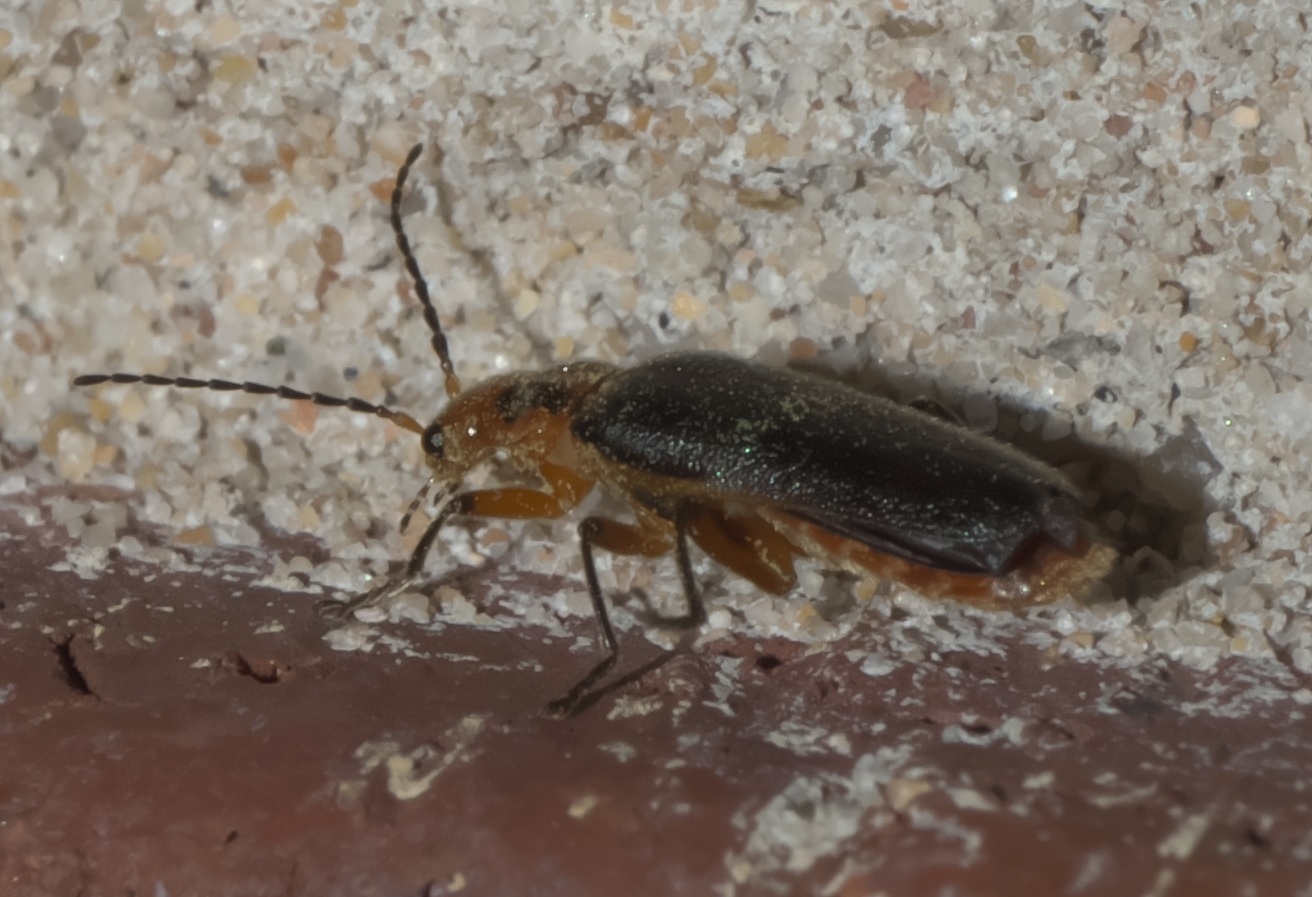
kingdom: Animalia
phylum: Arthropoda
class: Insecta
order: Coleoptera
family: Cantharidae
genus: Atalantycha
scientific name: Atalantycha bilineata
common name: Two-lined leatherwing
